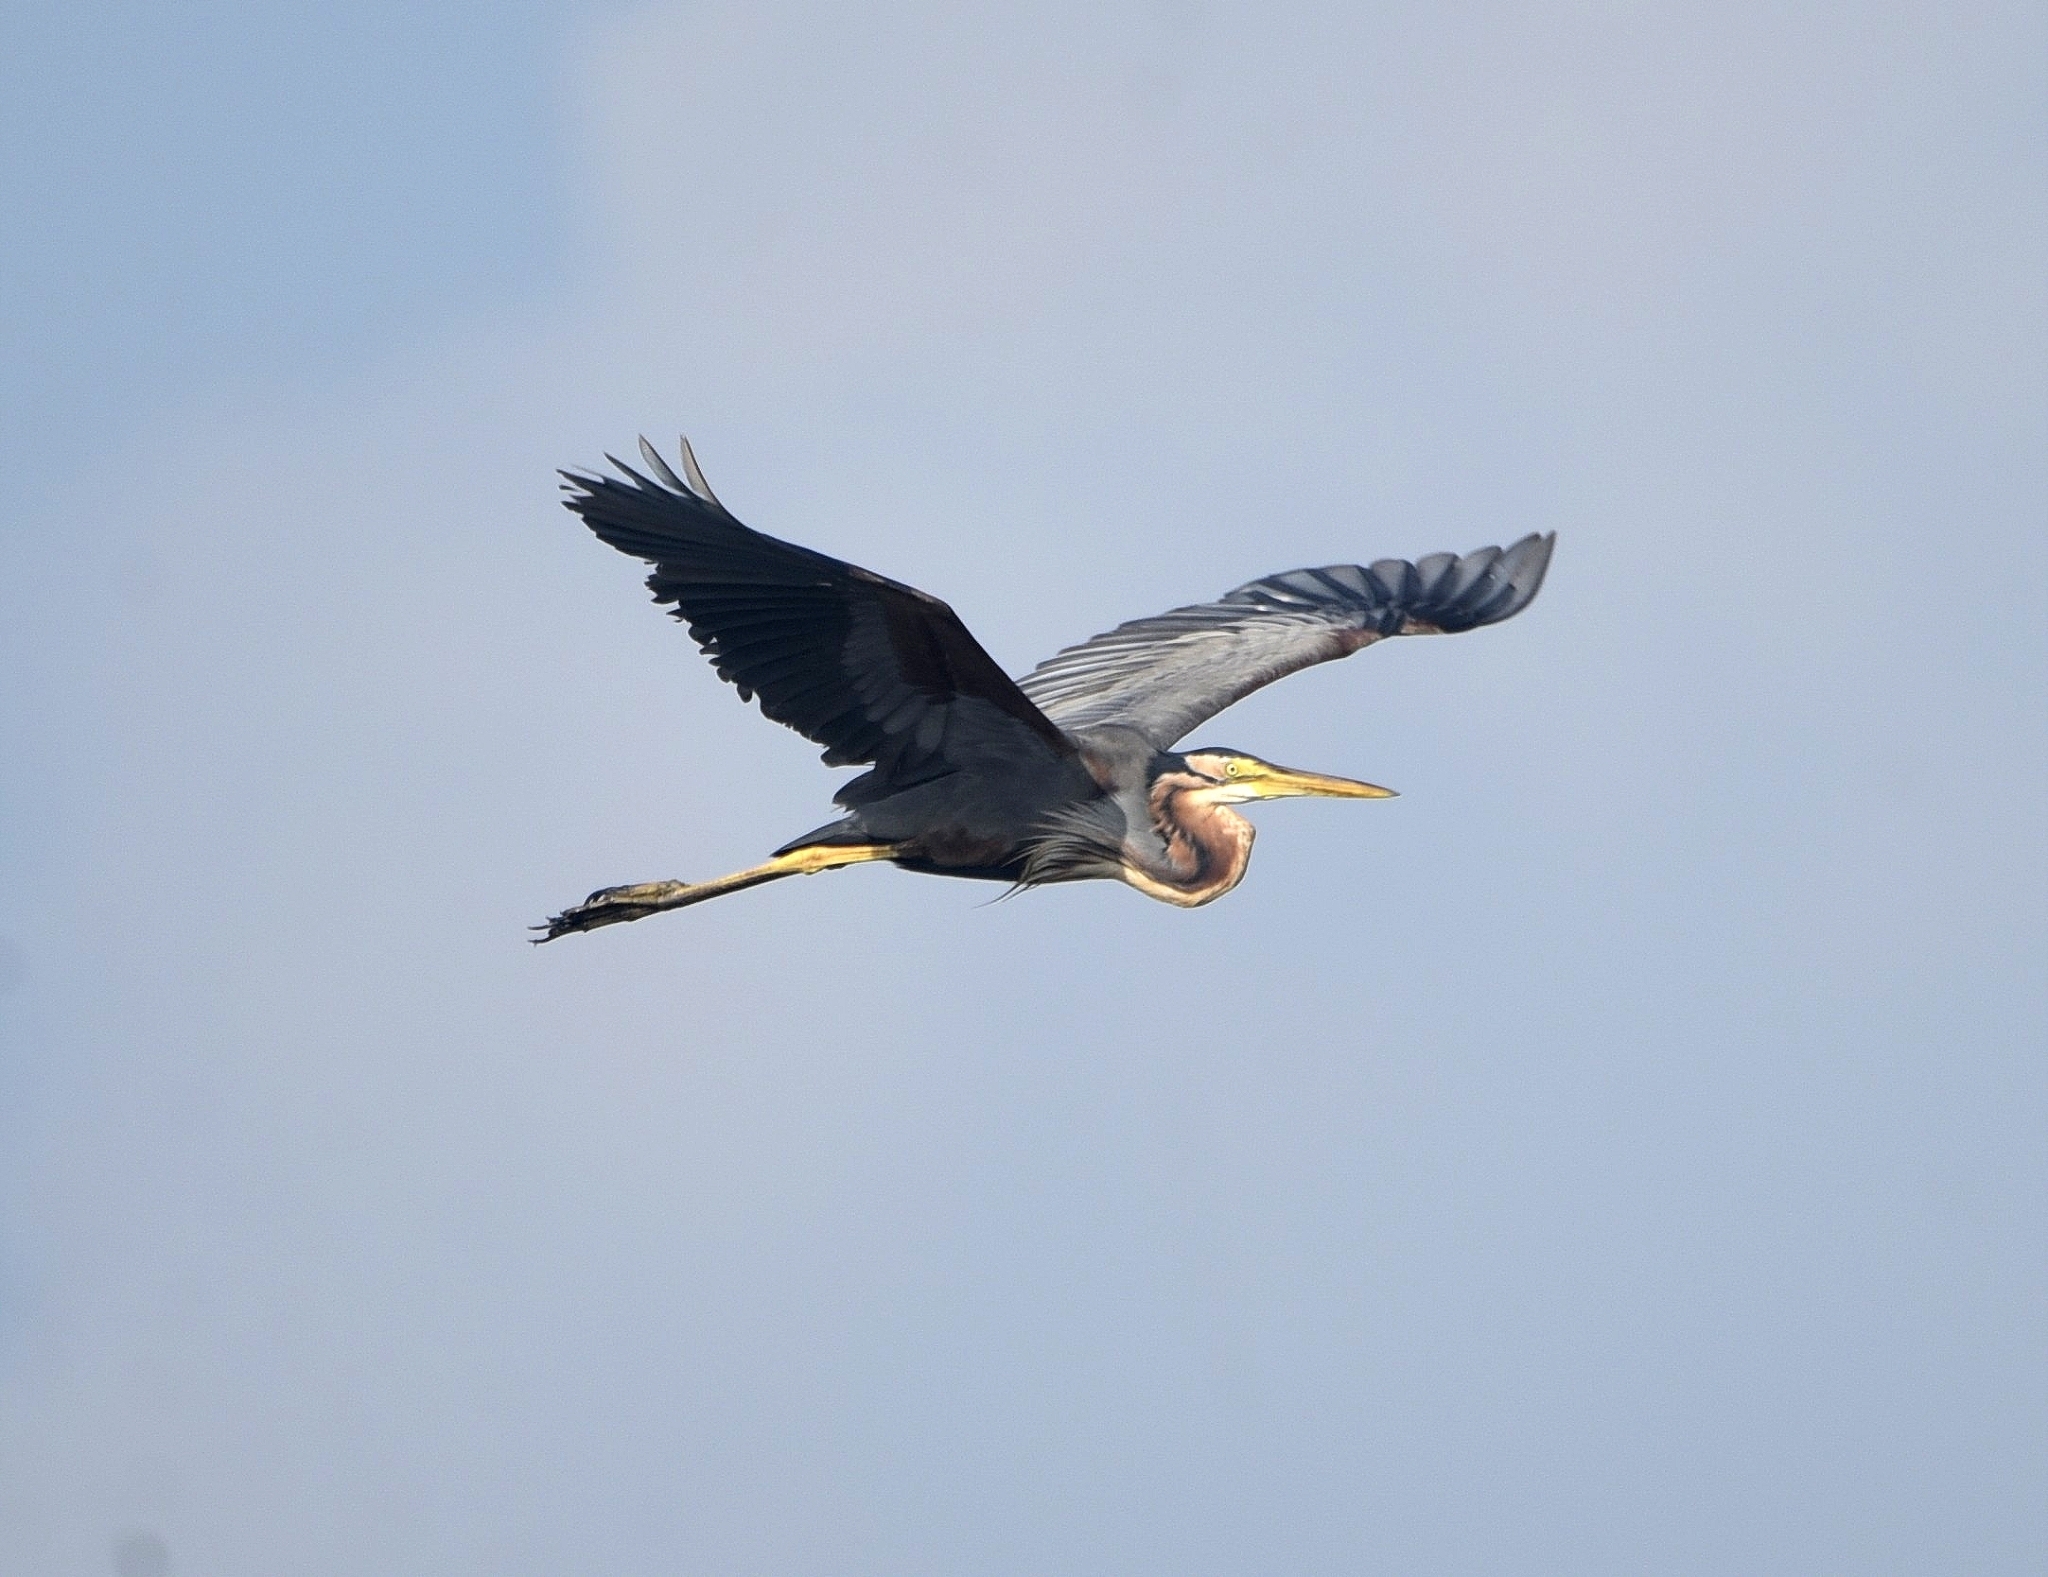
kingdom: Animalia
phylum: Chordata
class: Aves
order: Pelecaniformes
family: Ardeidae
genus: Ardea
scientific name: Ardea purpurea
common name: Purple heron
